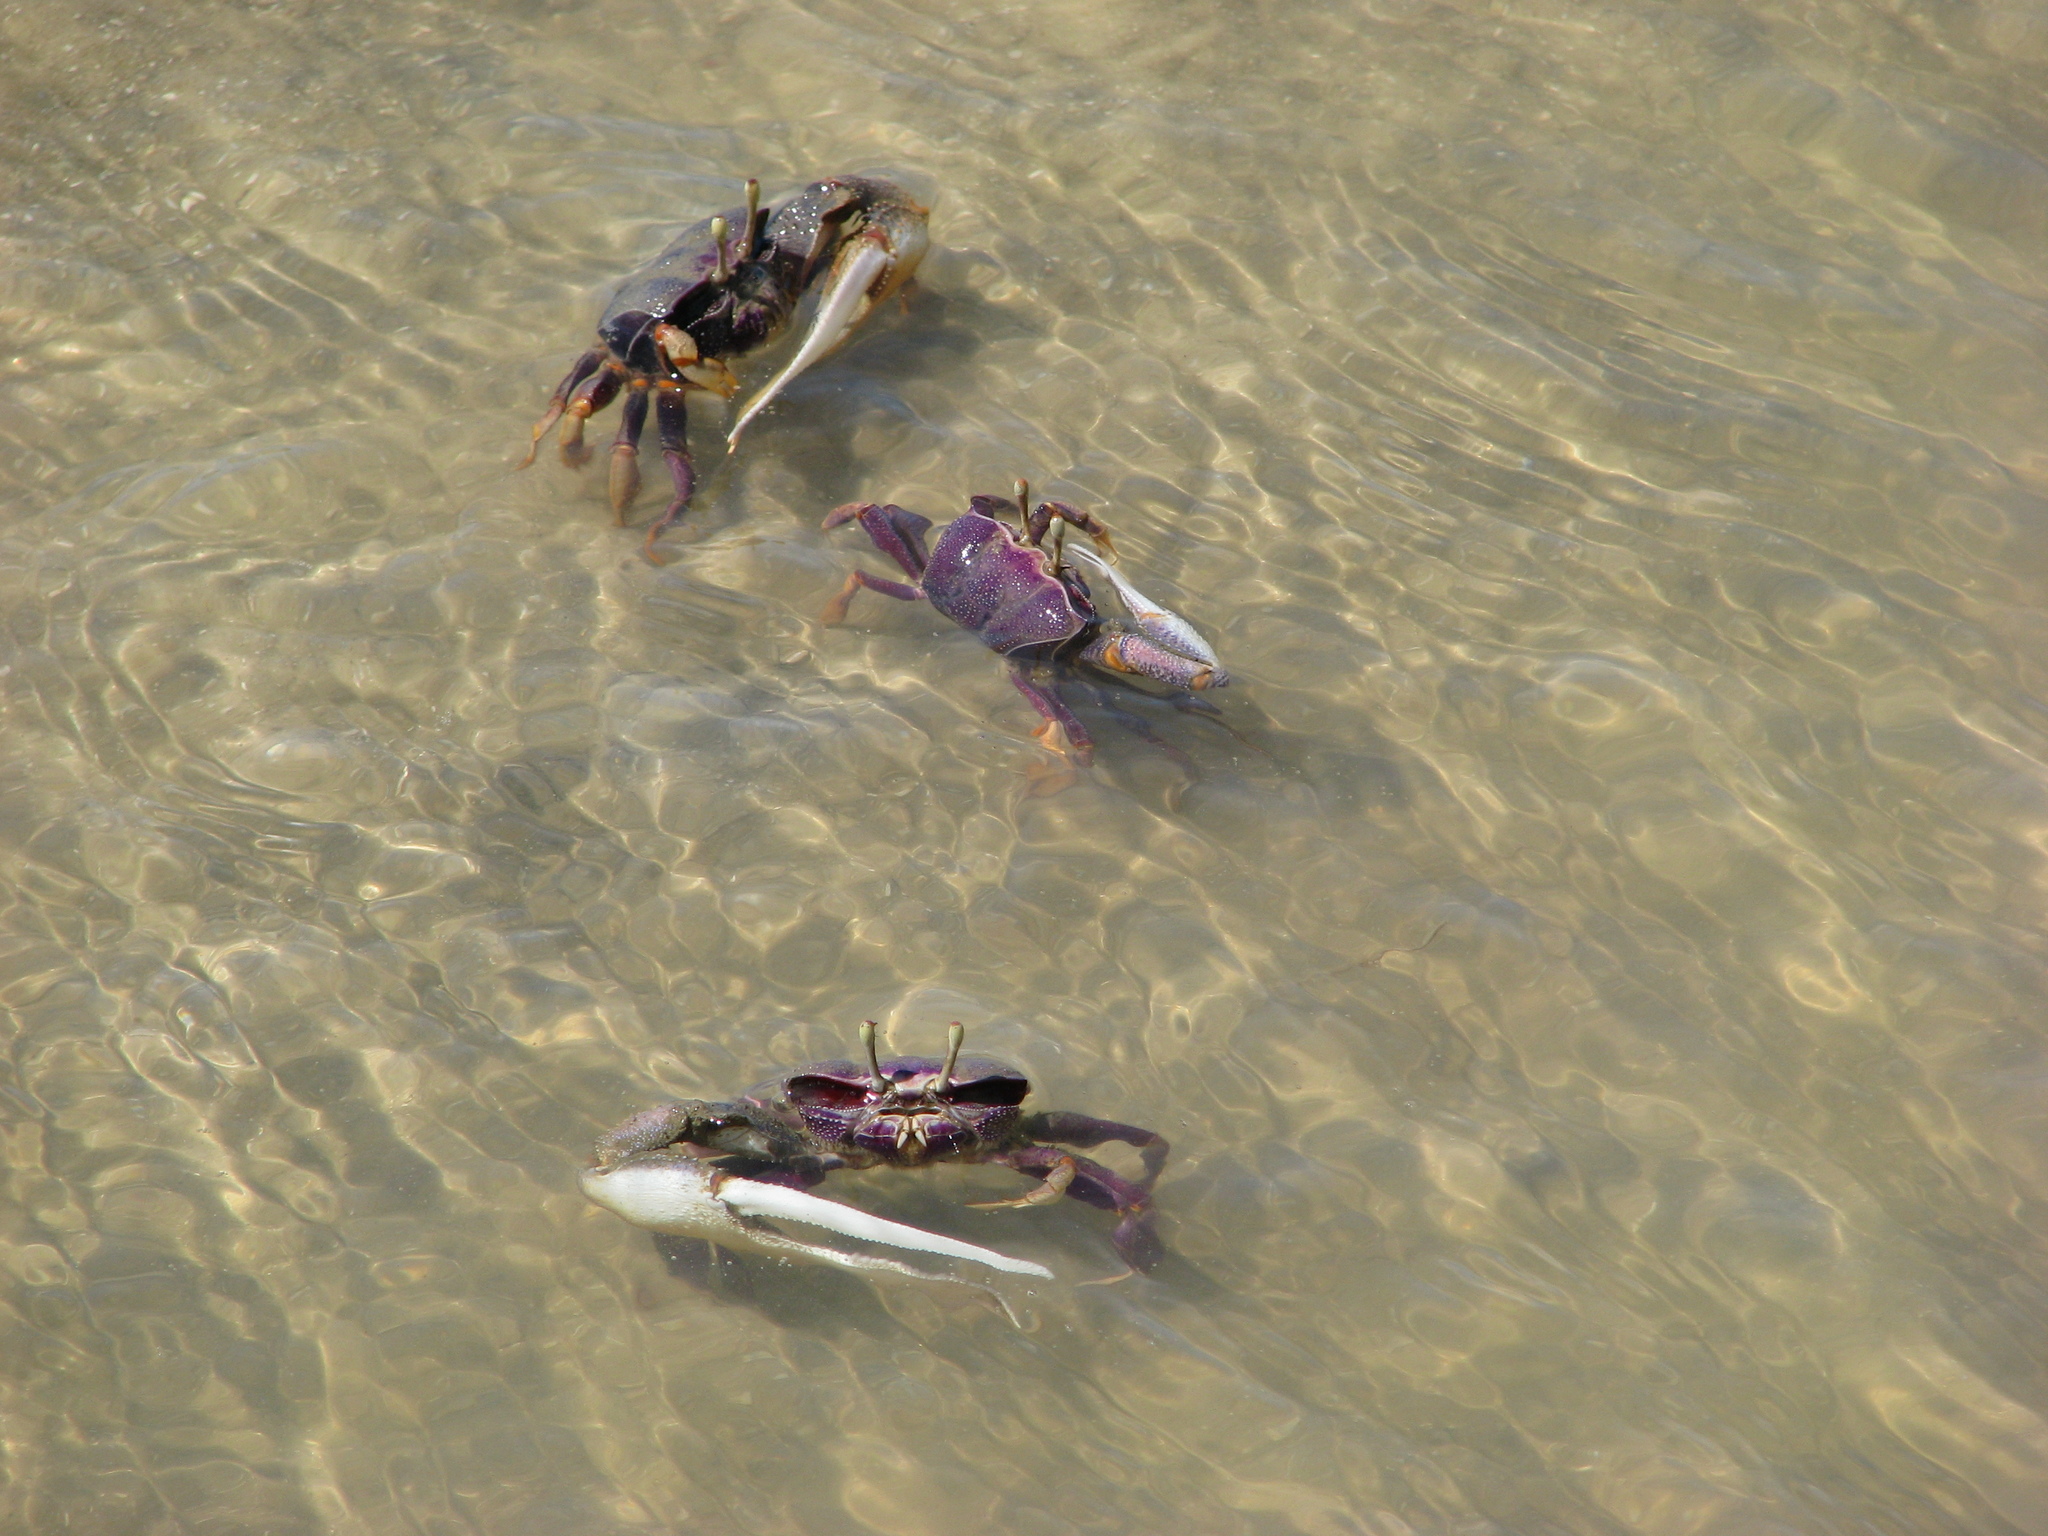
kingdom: Animalia
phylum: Arthropoda
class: Malacostraca
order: Decapoda
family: Ocypodidae
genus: Afruca
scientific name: Afruca tangeri
